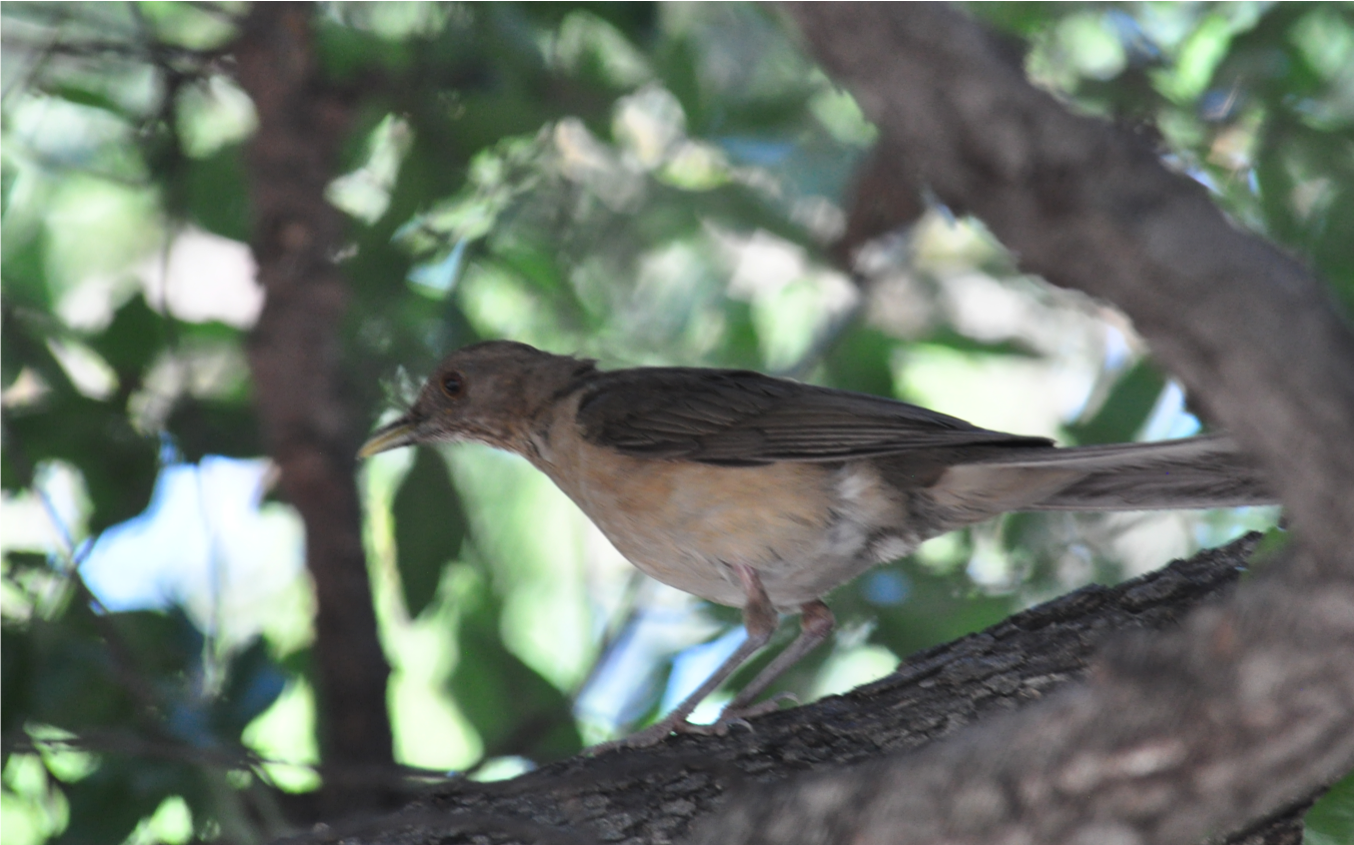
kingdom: Animalia
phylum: Chordata
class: Aves
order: Passeriformes
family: Turdidae
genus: Turdus
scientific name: Turdus grayi
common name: Clay-colored thrush
